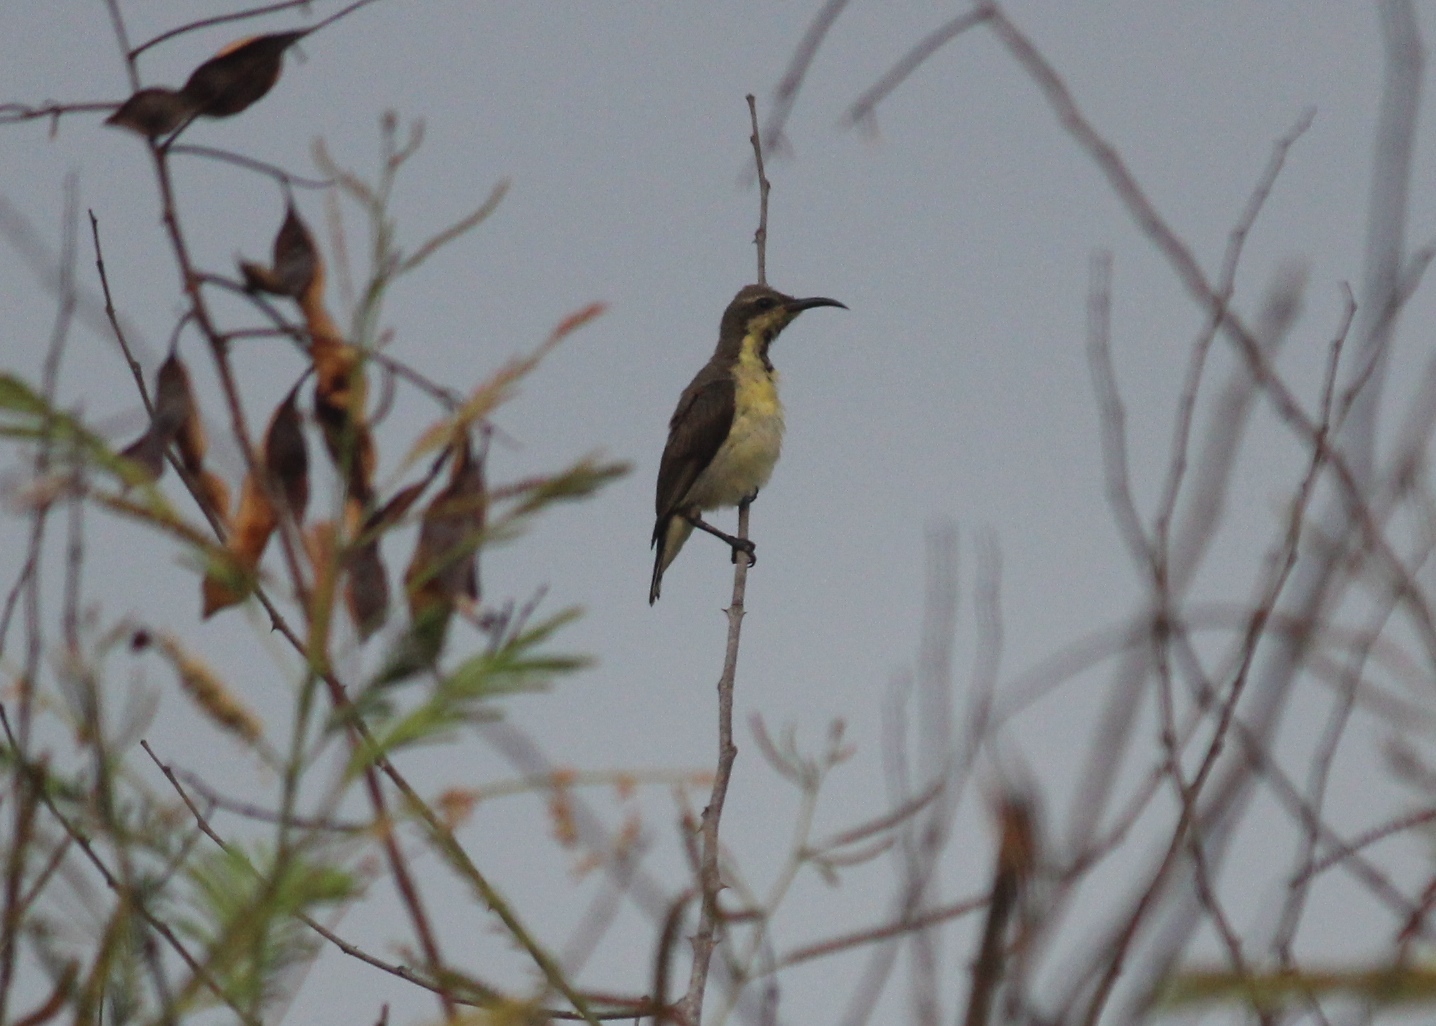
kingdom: Animalia
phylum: Chordata
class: Aves
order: Passeriformes
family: Nectariniidae
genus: Leptocoma
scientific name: Leptocoma zeylonica
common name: Purple-rumped sunbird
